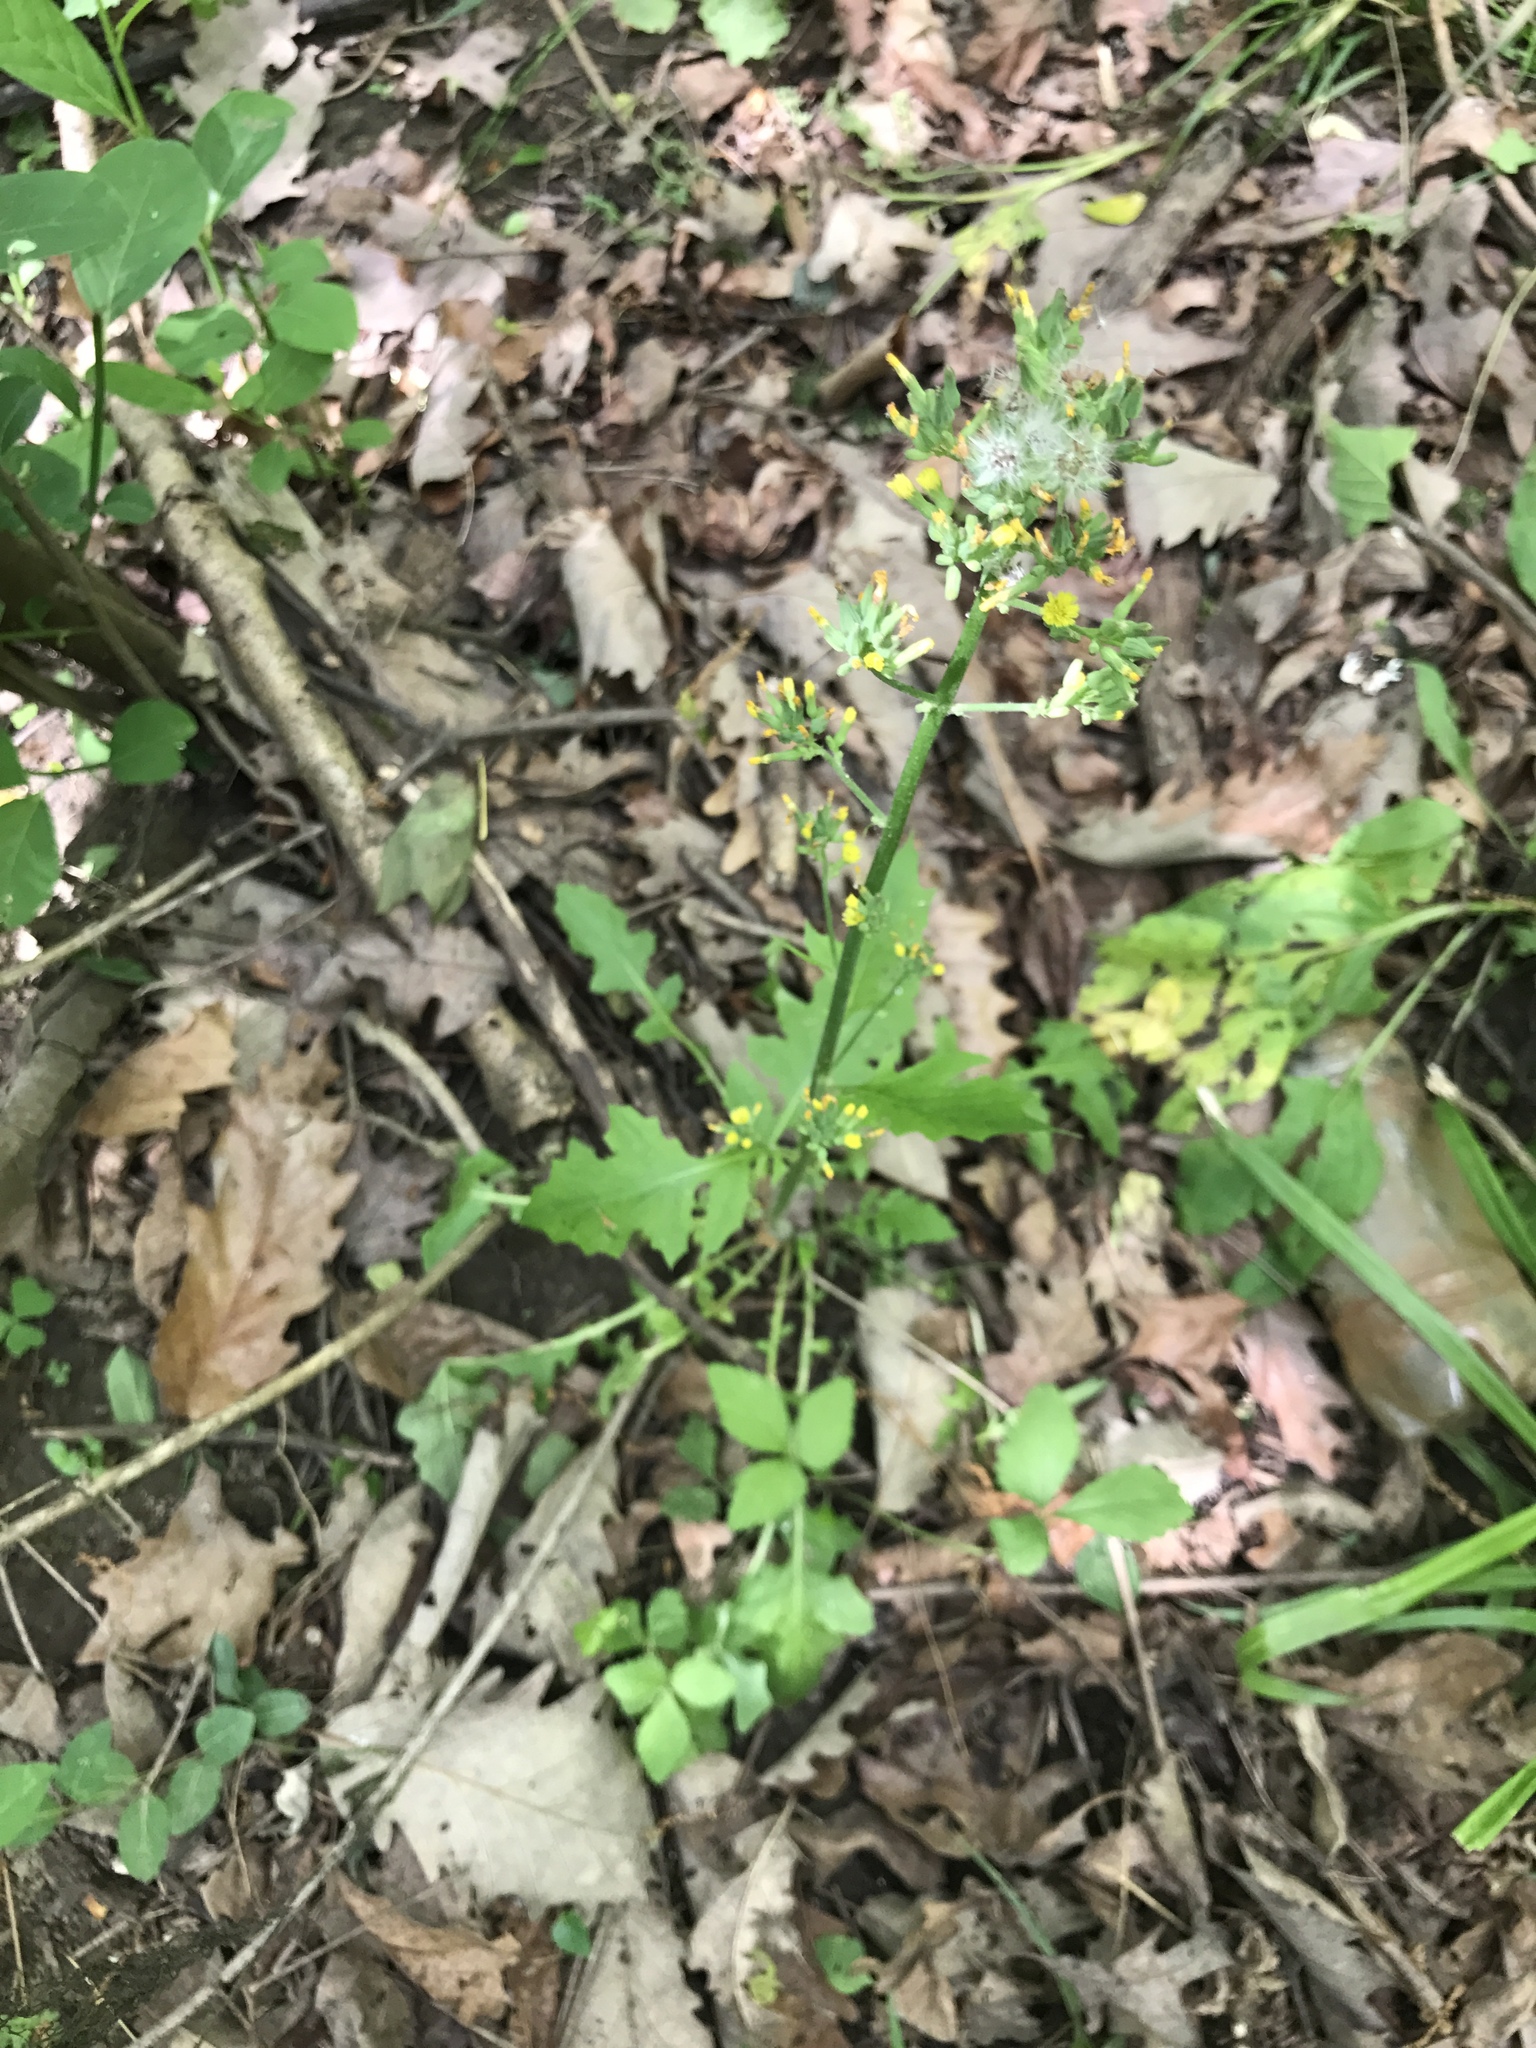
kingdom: Plantae
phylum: Tracheophyta
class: Magnoliopsida
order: Asterales
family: Asteraceae
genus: Youngia
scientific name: Youngia japonica
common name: Oriental false hawksbeard
